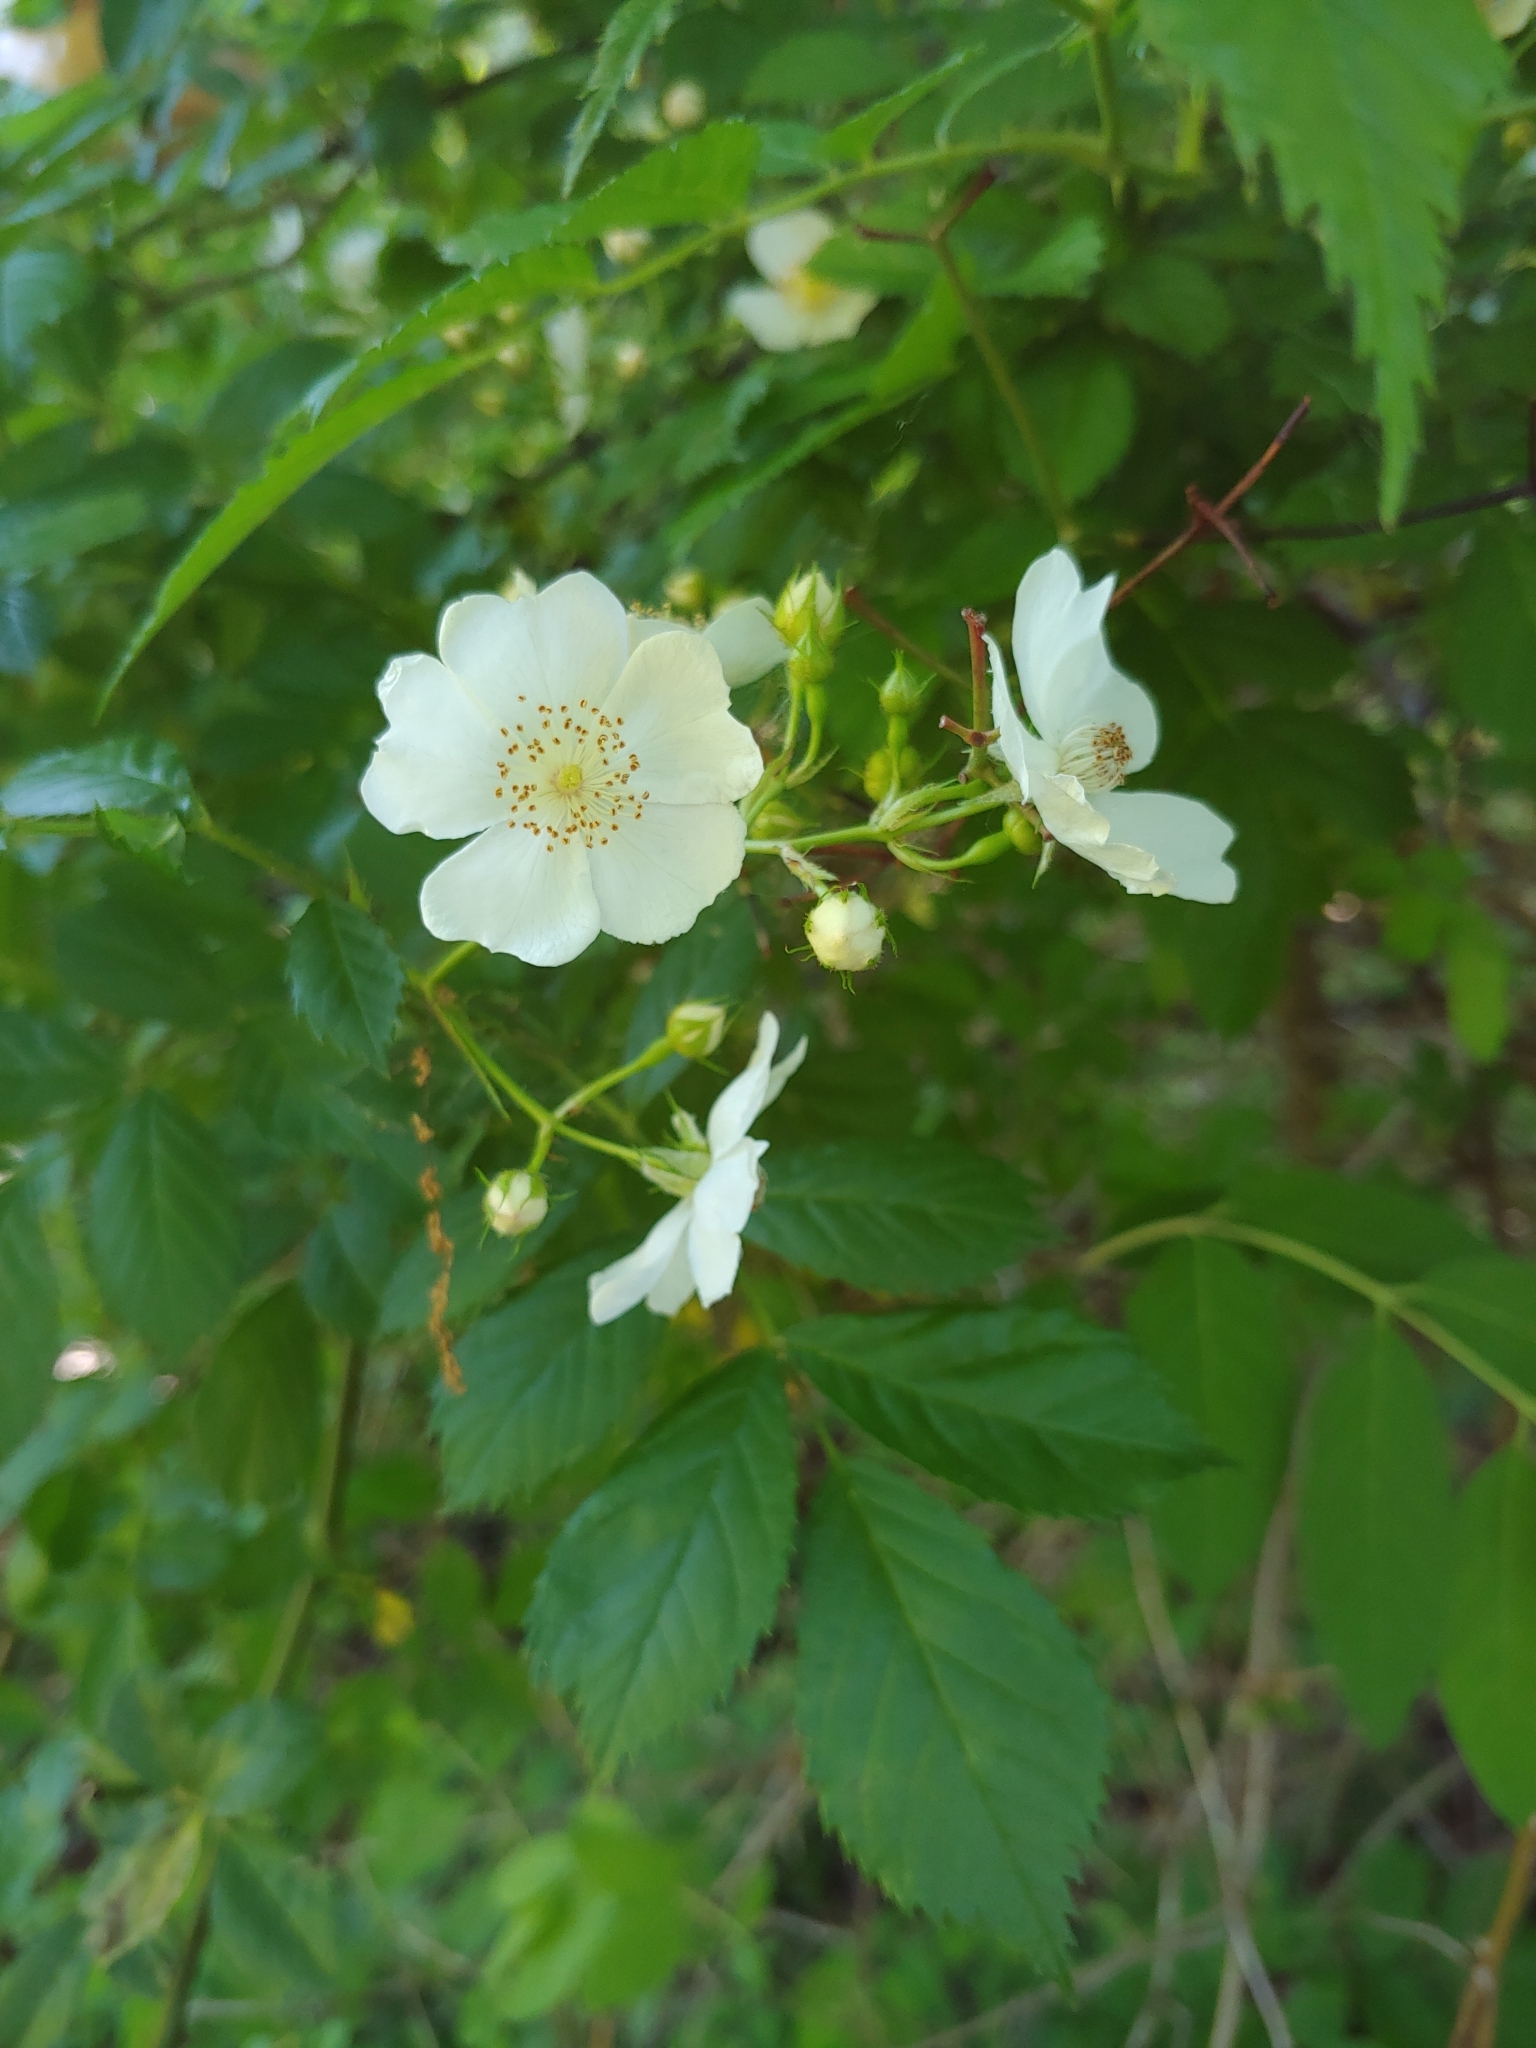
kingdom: Plantae
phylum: Tracheophyta
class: Magnoliopsida
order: Rosales
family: Rosaceae
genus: Rosa
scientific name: Rosa multiflora
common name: Multiflora rose
